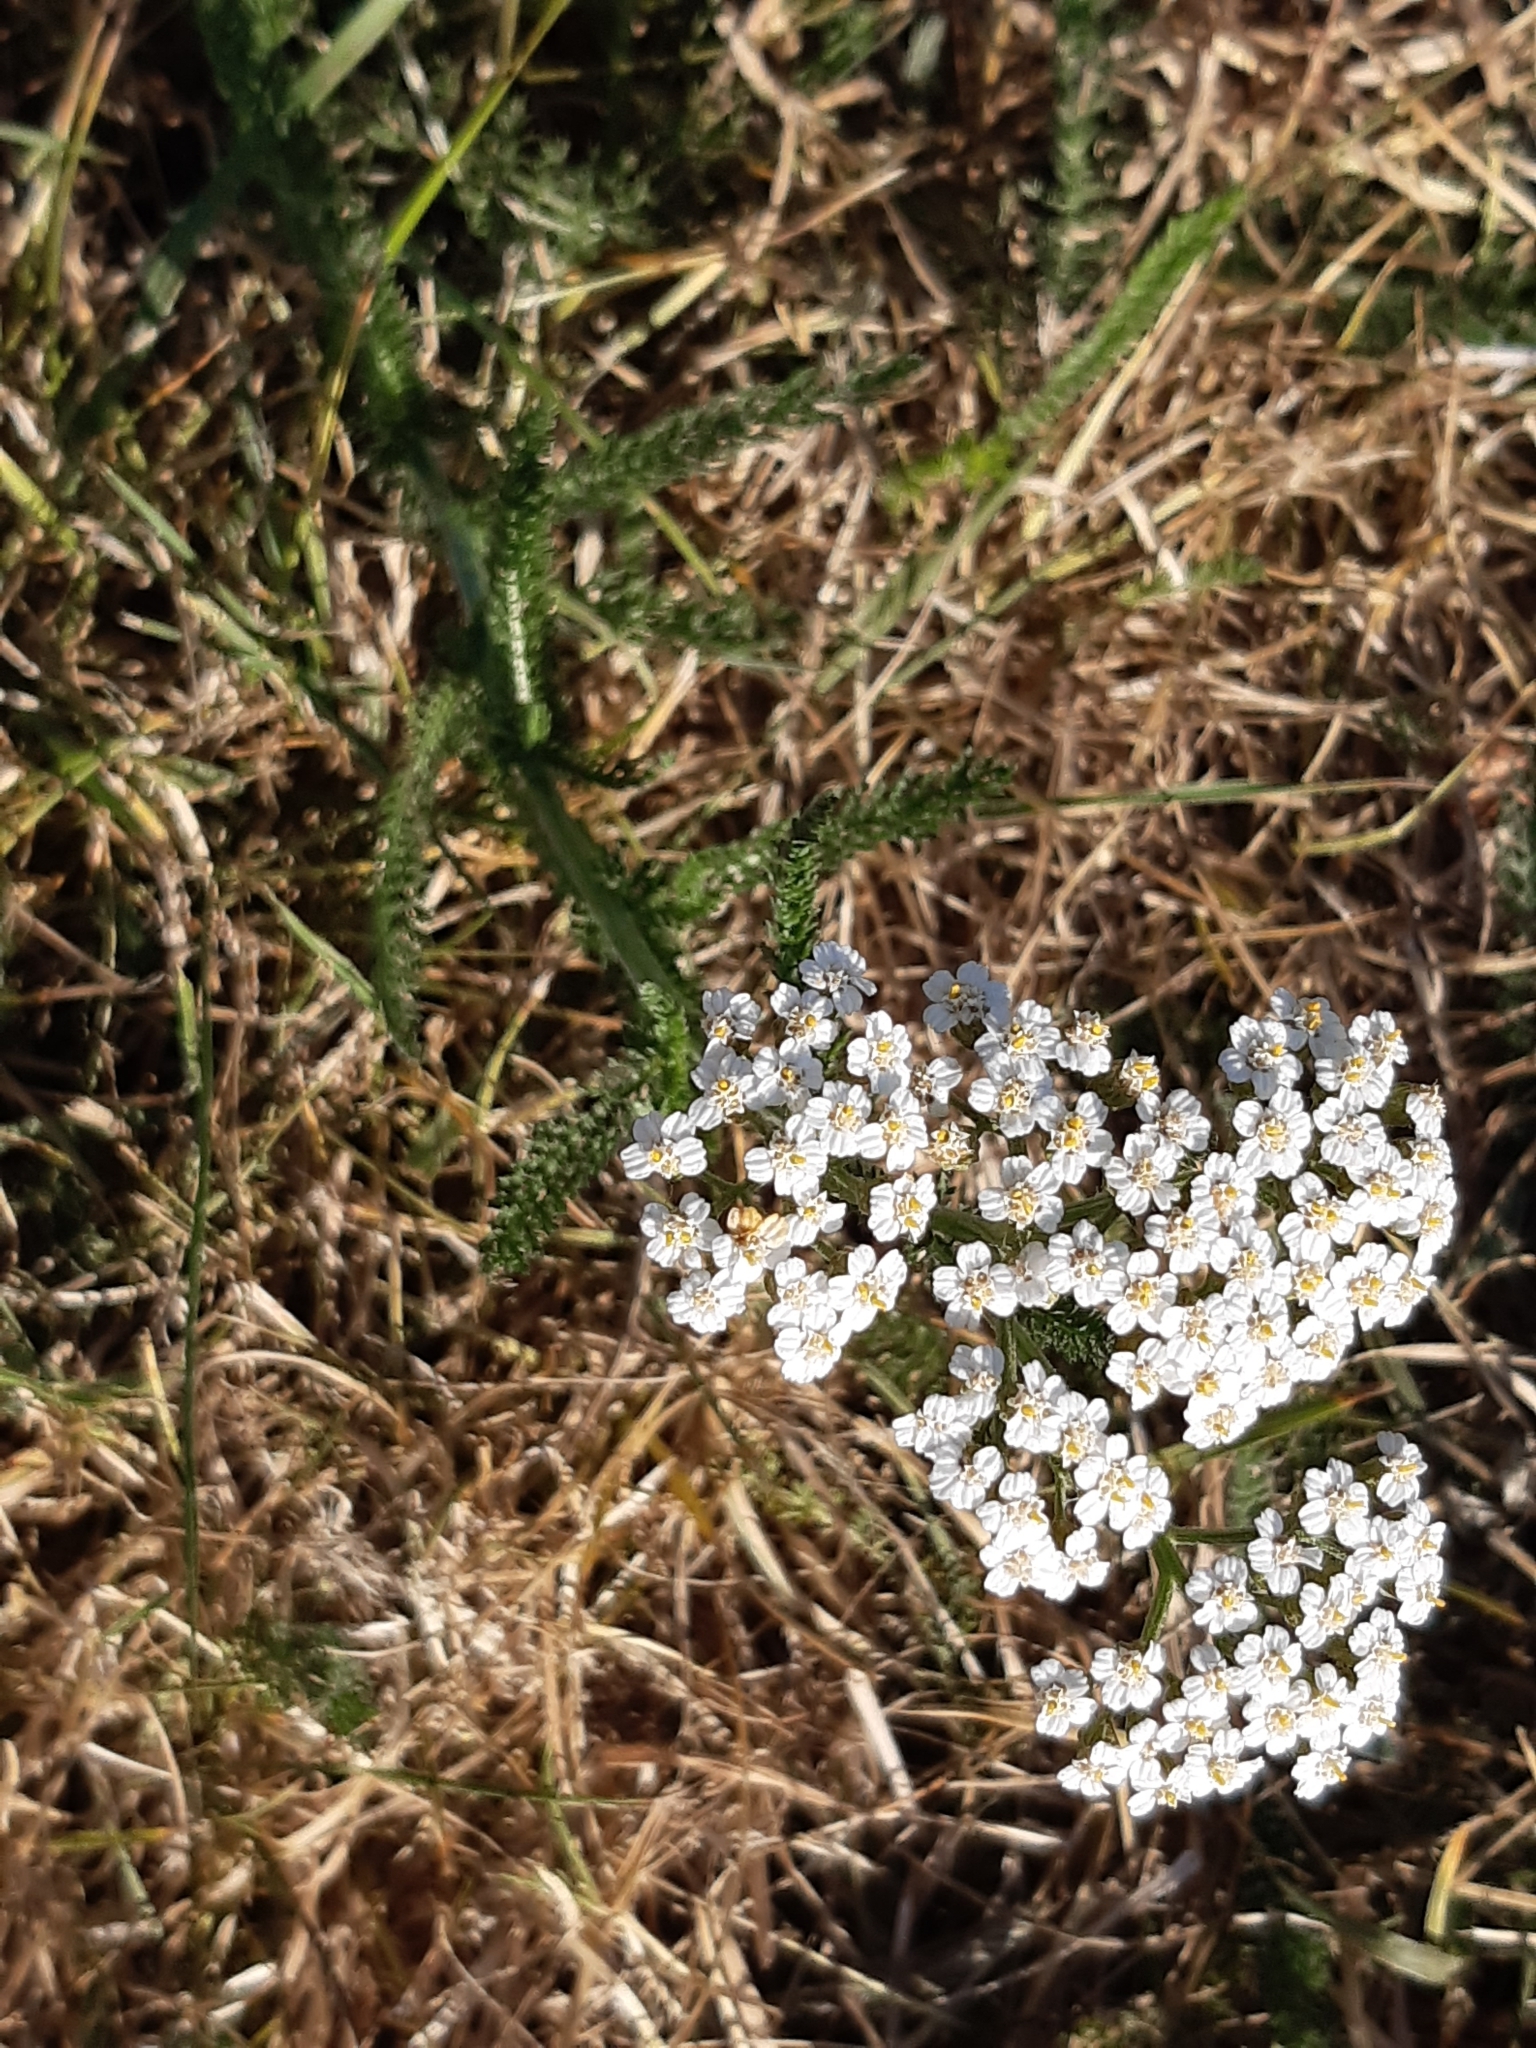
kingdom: Plantae
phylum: Tracheophyta
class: Magnoliopsida
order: Asterales
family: Asteraceae
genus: Achillea
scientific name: Achillea millefolium
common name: Yarrow
